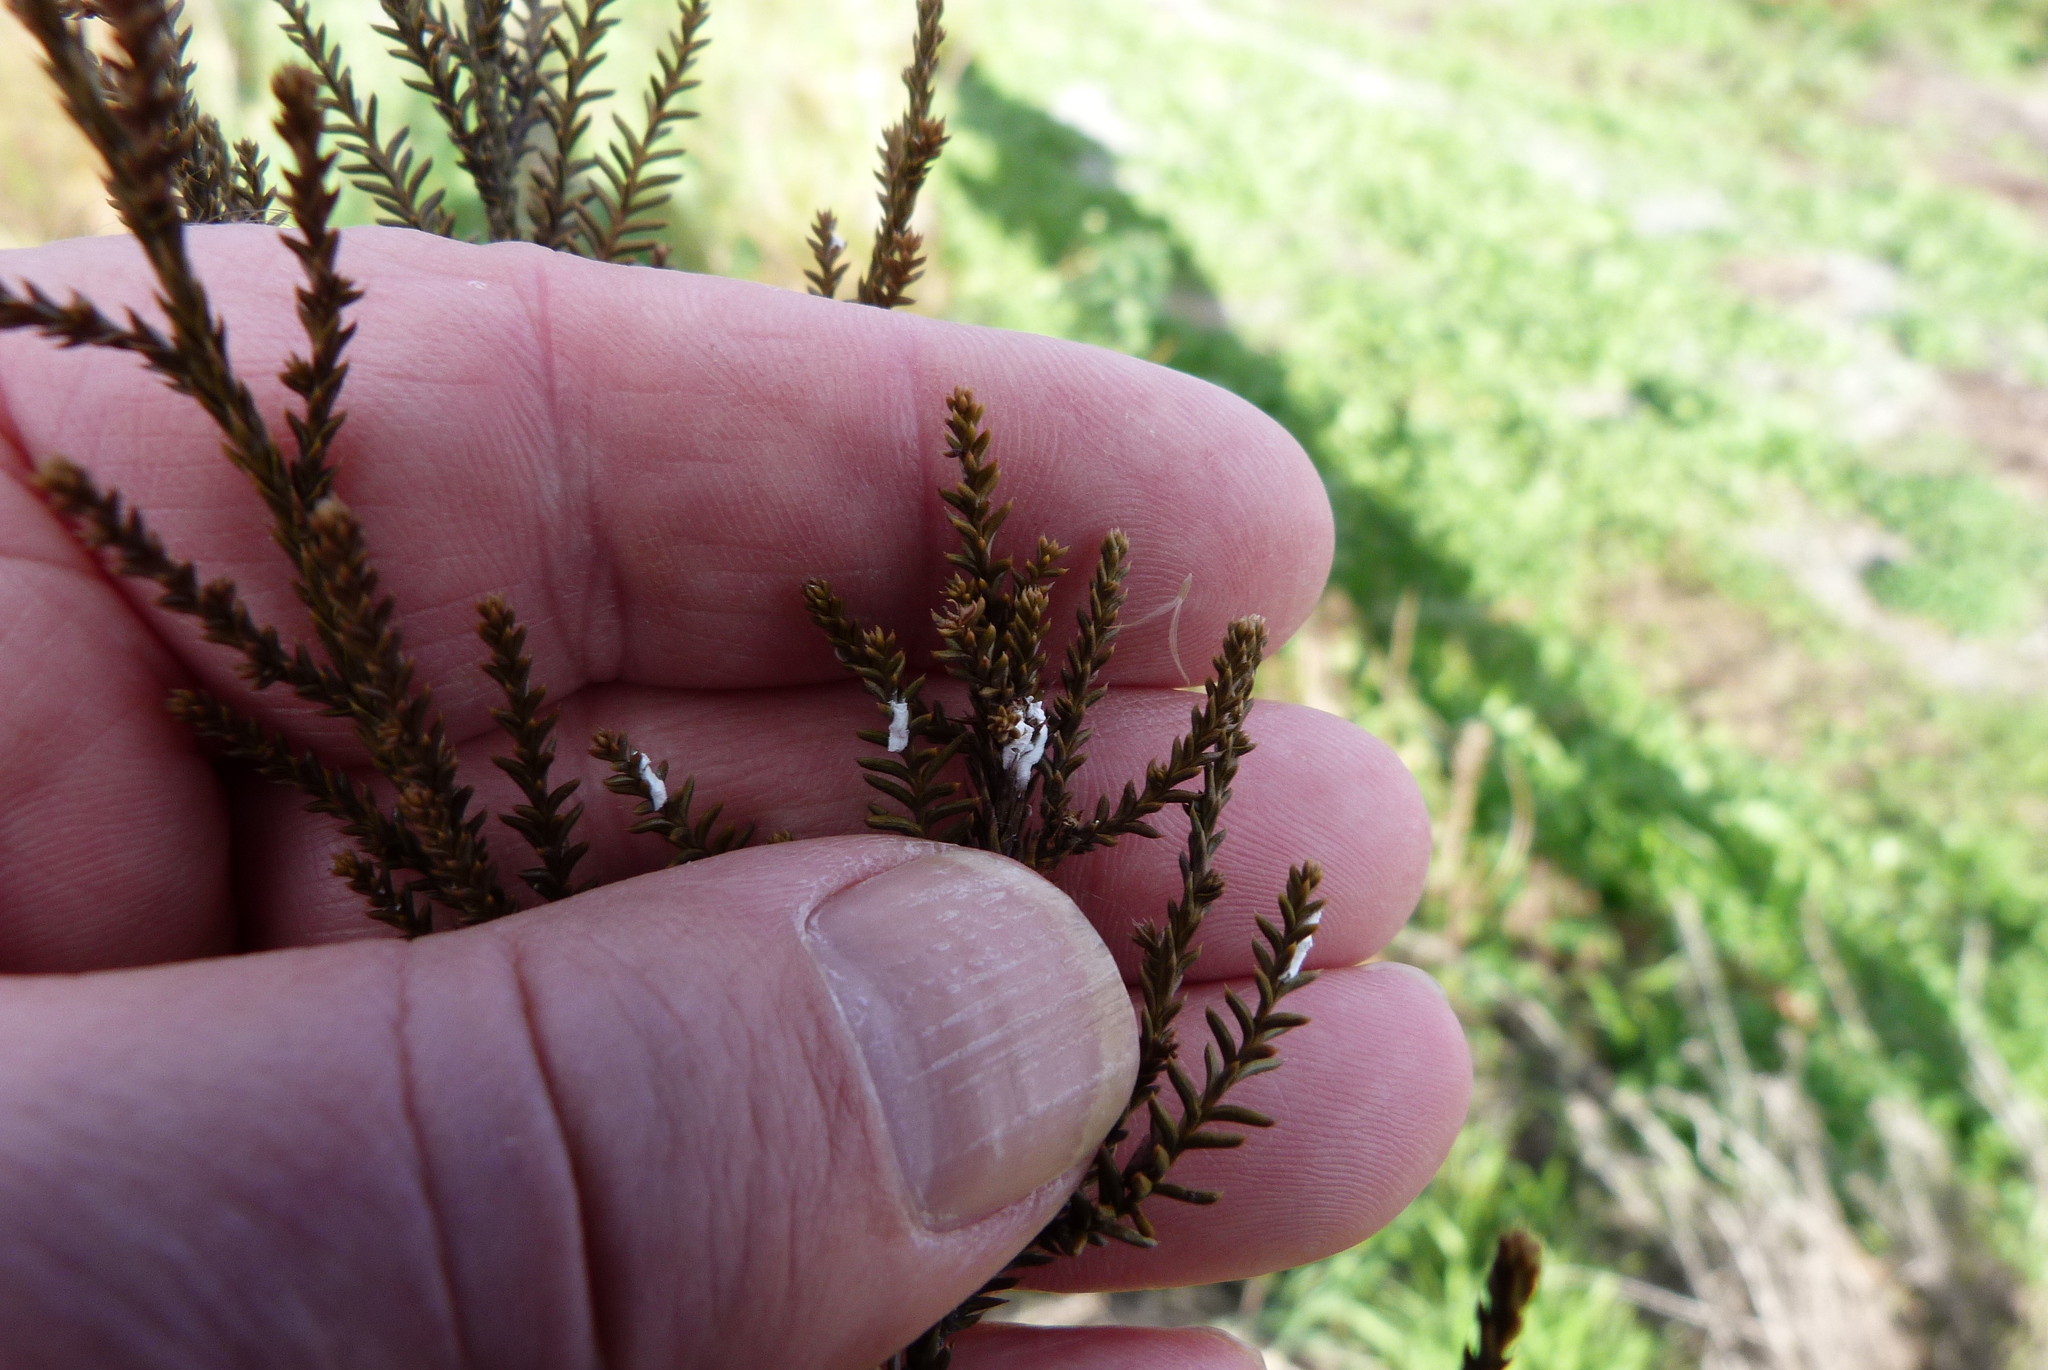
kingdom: Animalia
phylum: Arthropoda
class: Insecta
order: Hemiptera
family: Pseudococcidae
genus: Paraferrisia
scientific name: Paraferrisia podocarpi
